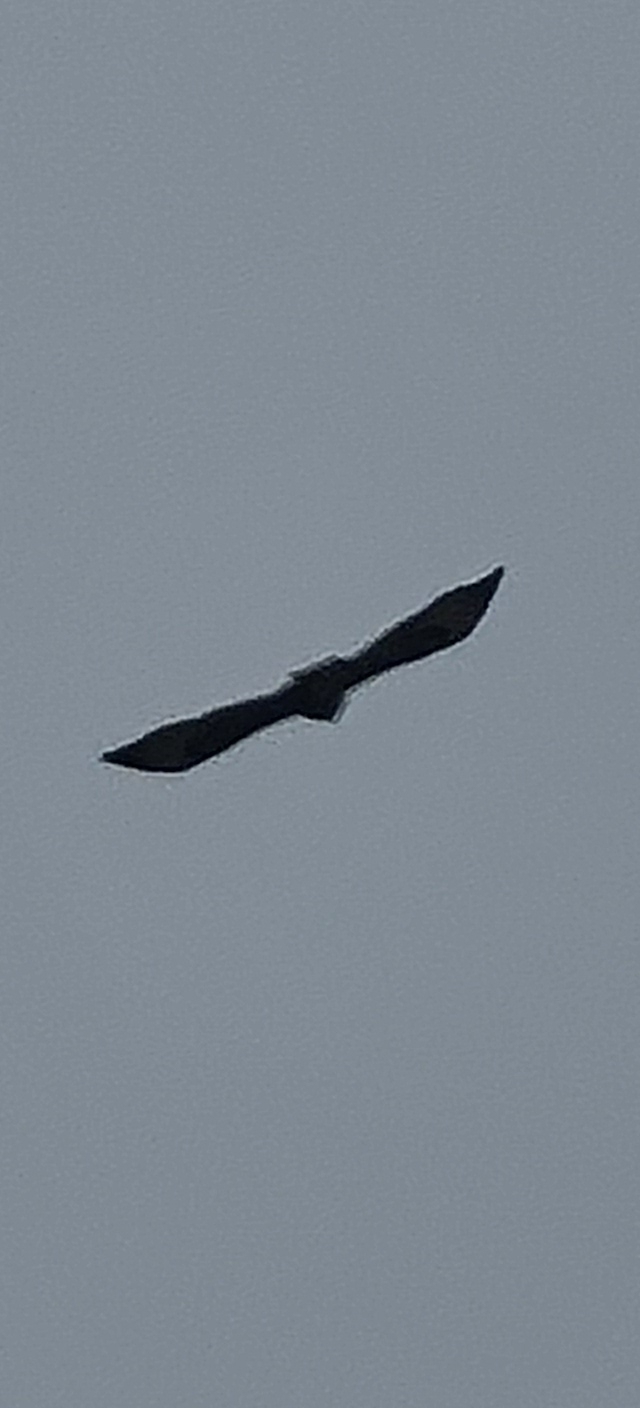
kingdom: Animalia
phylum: Chordata
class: Aves
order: Accipitriformes
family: Accipitridae
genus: Buteo
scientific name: Buteo buteo
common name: Common buzzard
